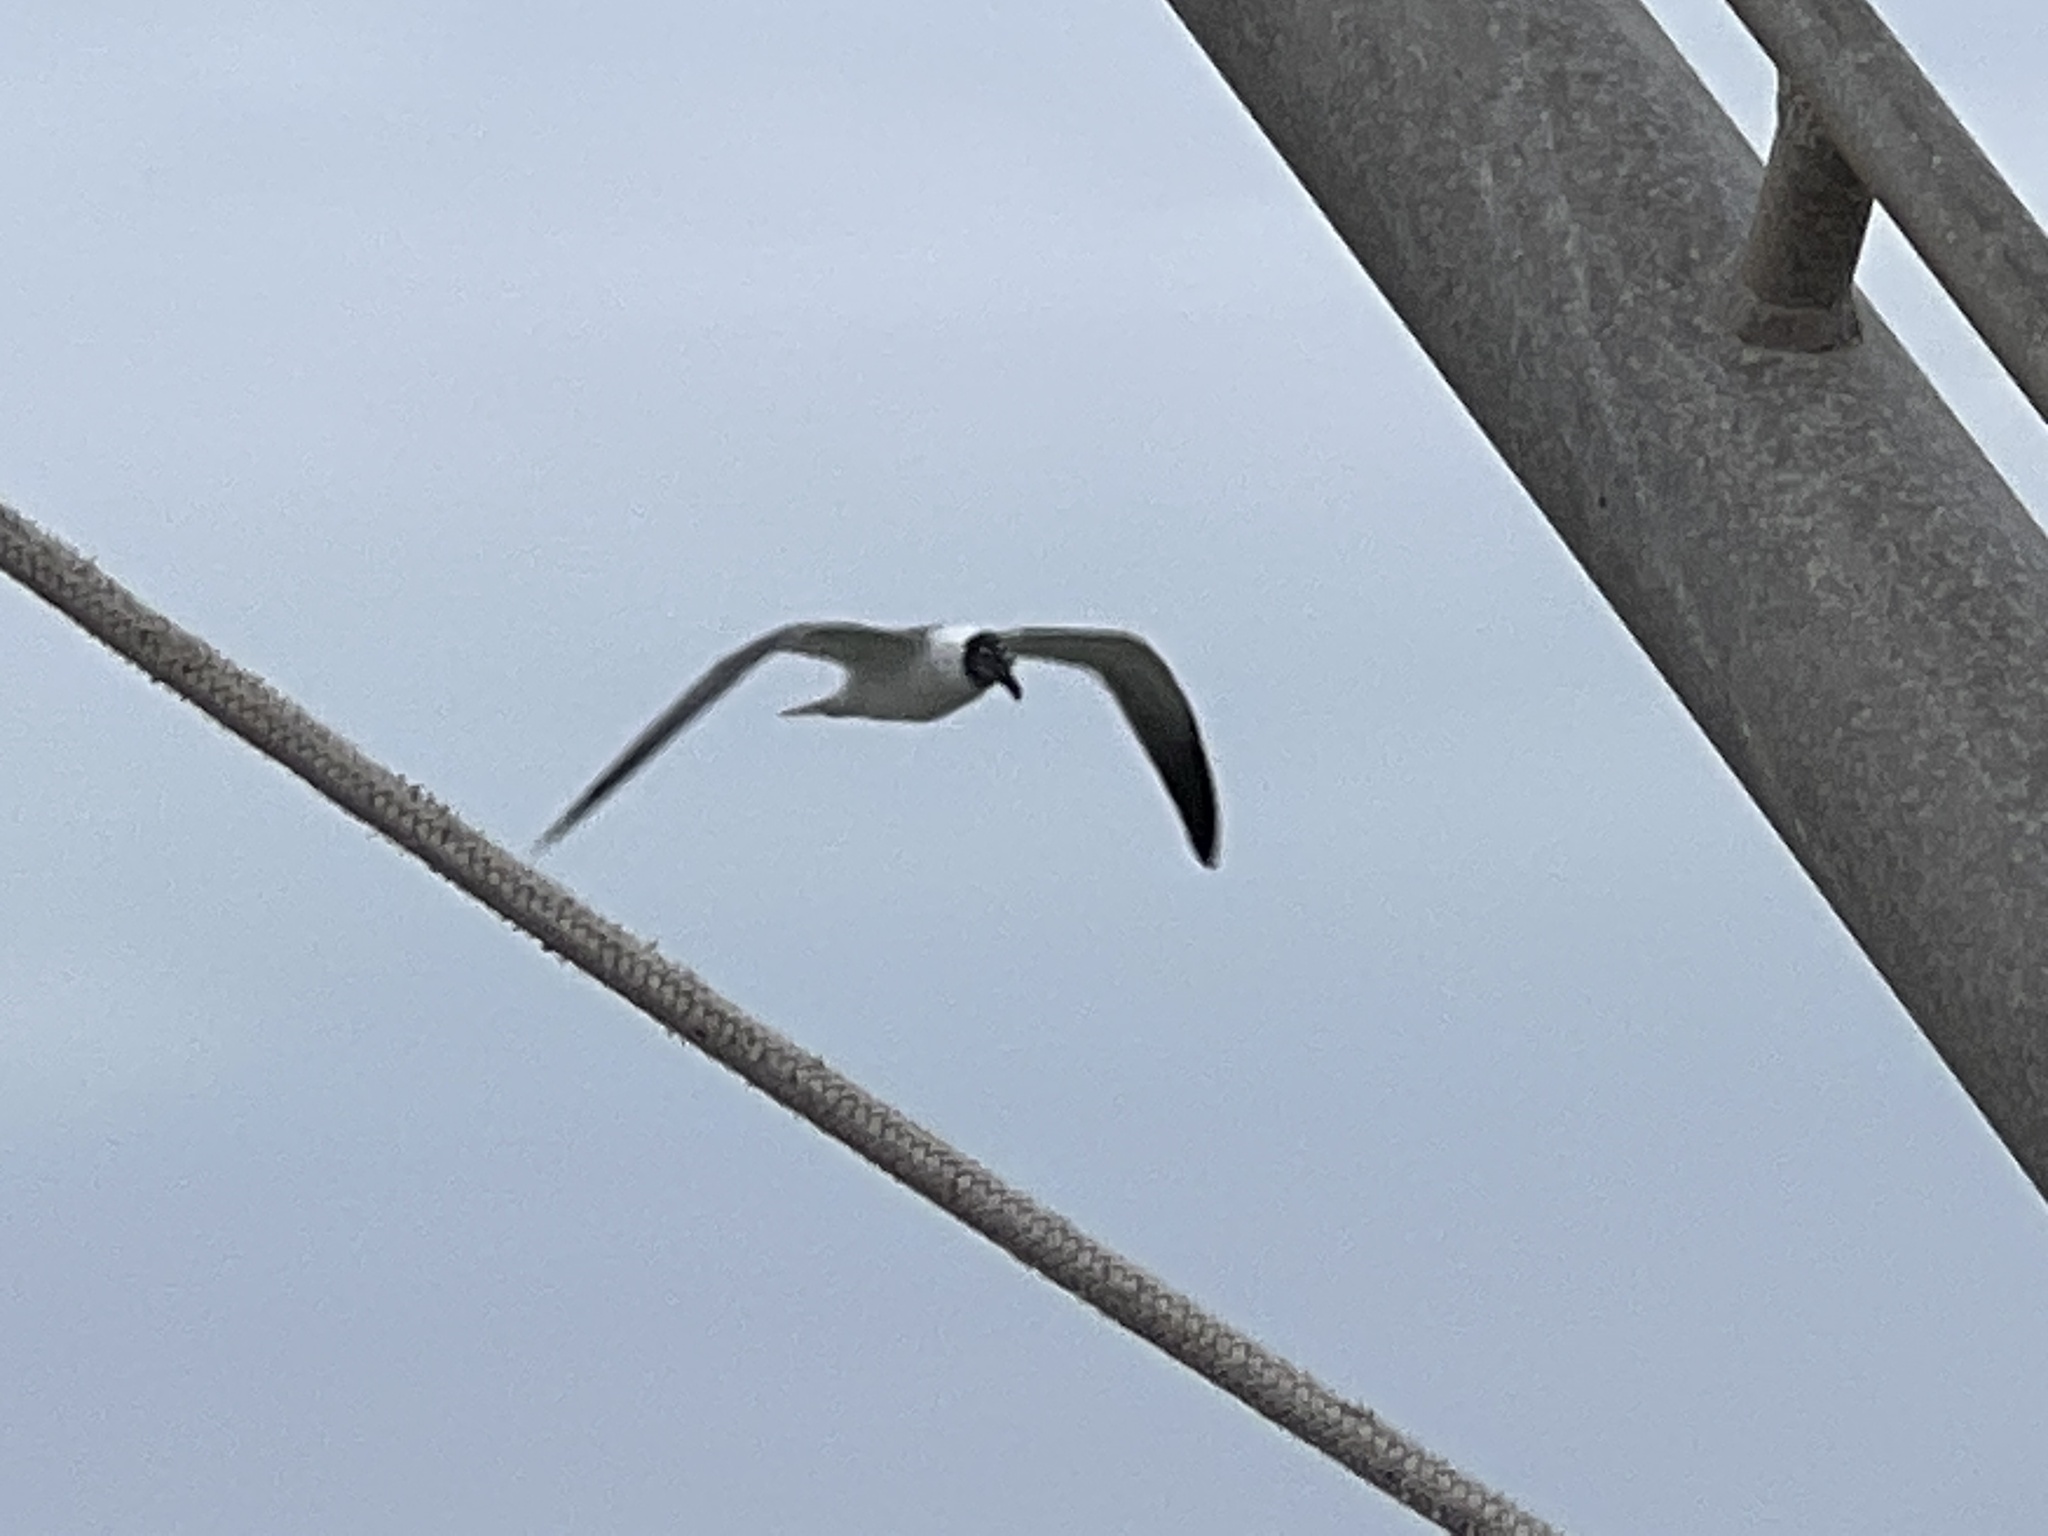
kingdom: Animalia
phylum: Chordata
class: Aves
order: Charadriiformes
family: Laridae
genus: Leucophaeus
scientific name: Leucophaeus atricilla
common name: Laughing gull
